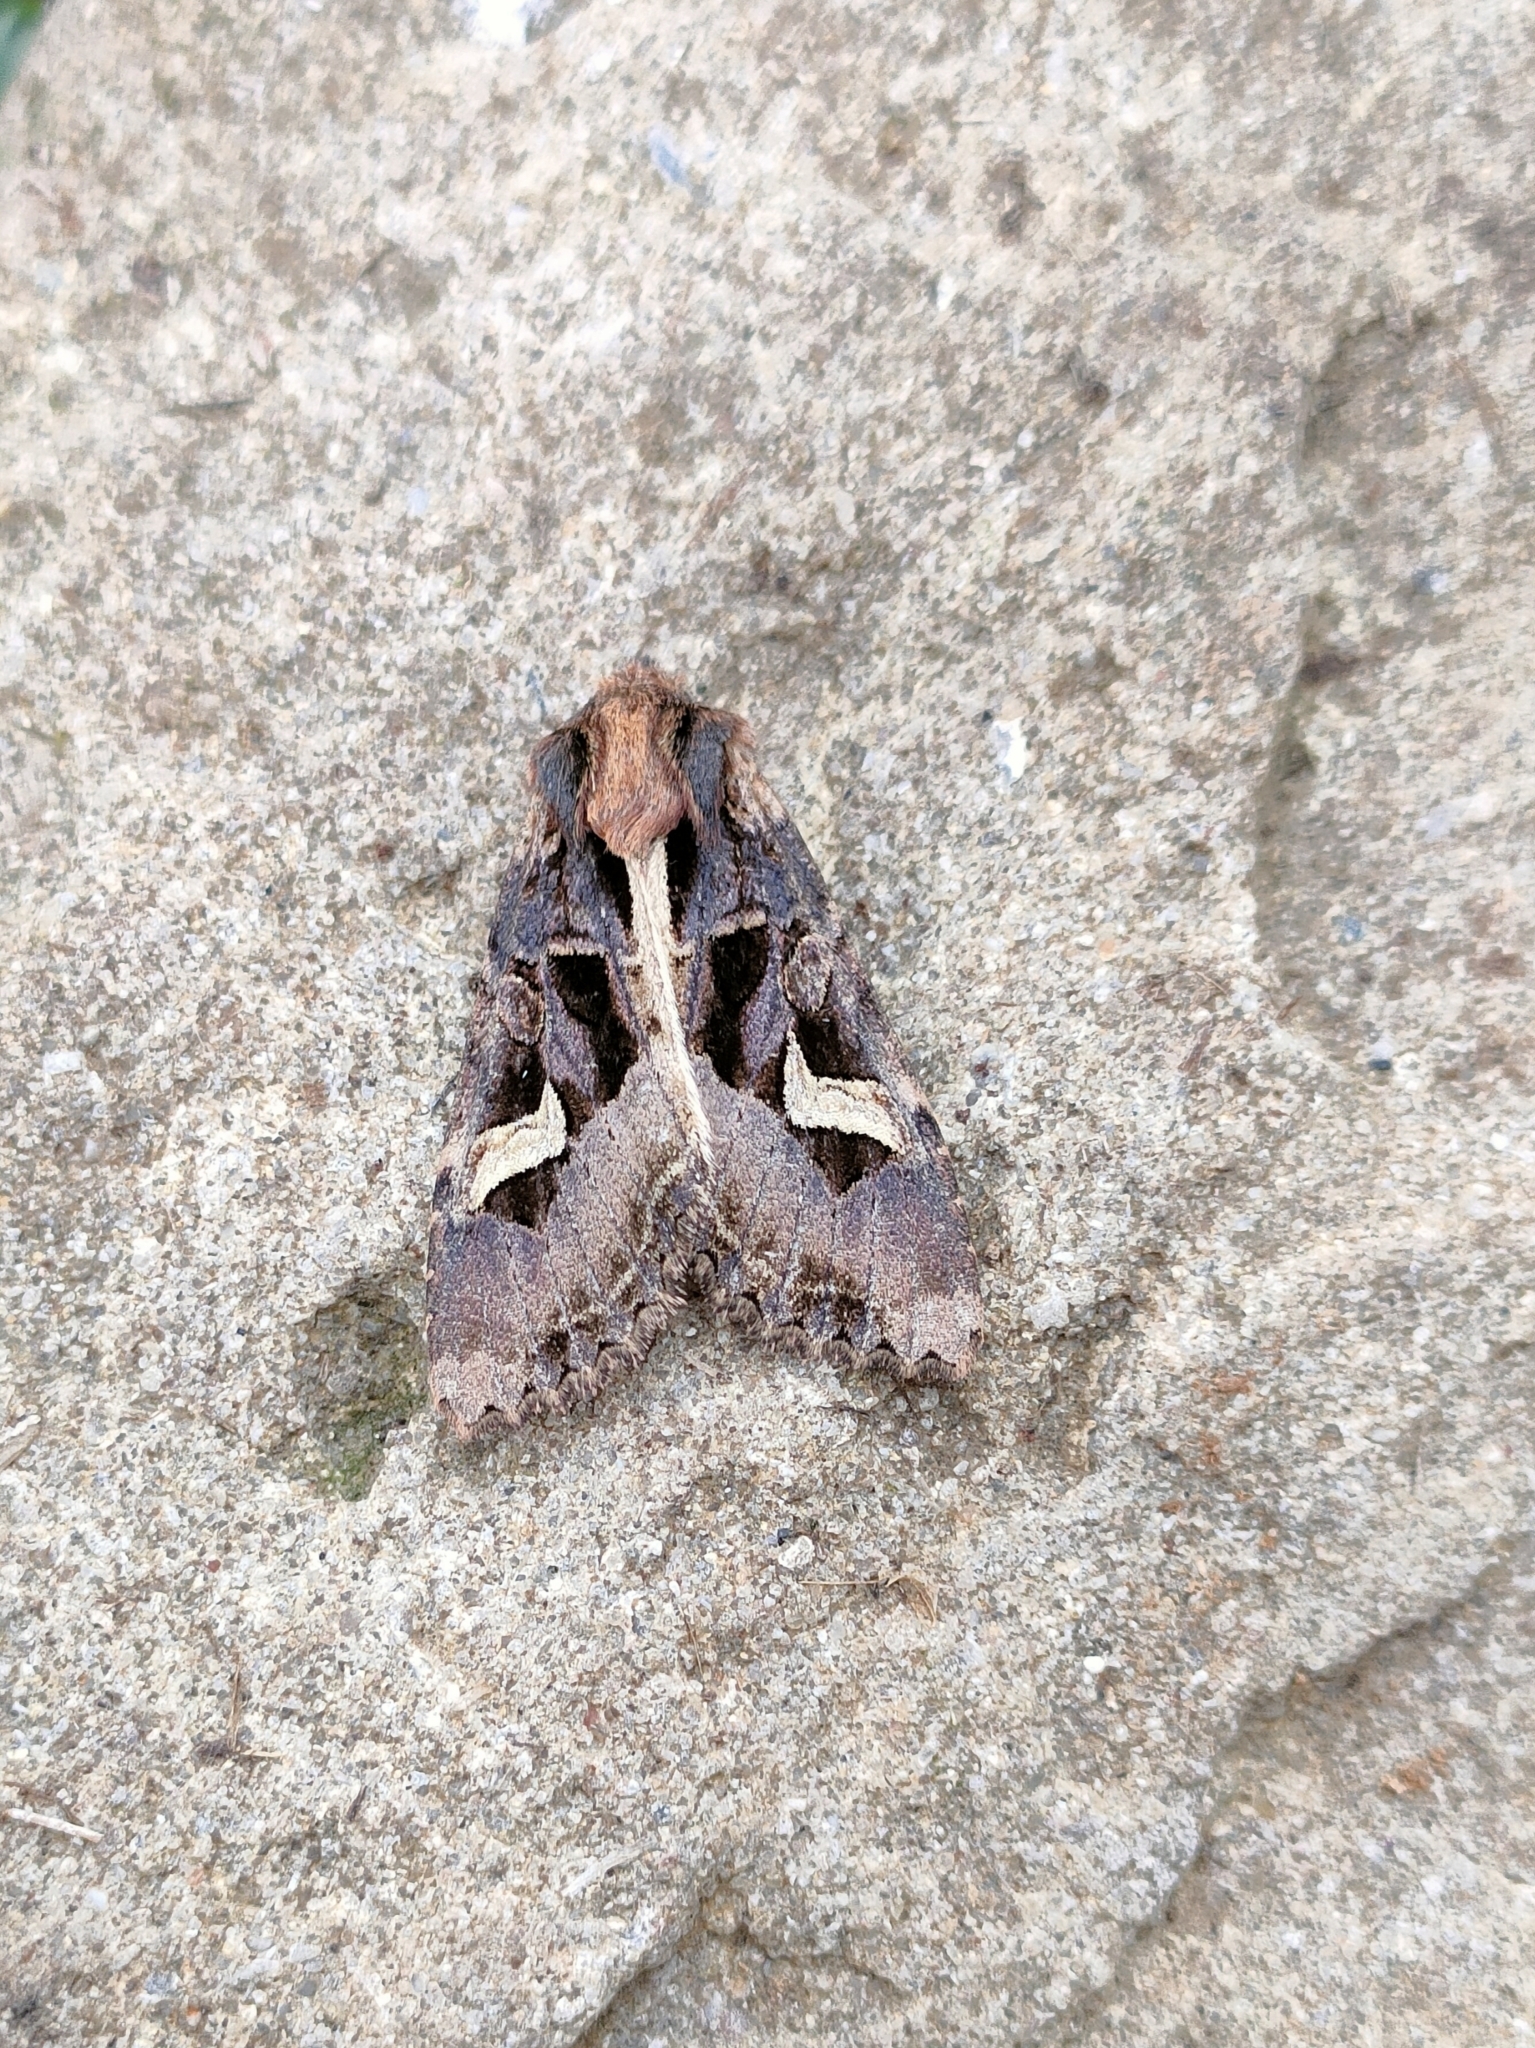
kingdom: Animalia
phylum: Arthropoda
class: Insecta
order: Lepidoptera
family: Noctuidae
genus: Trigonophora
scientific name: Trigonophora flammea
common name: Flame brocade
